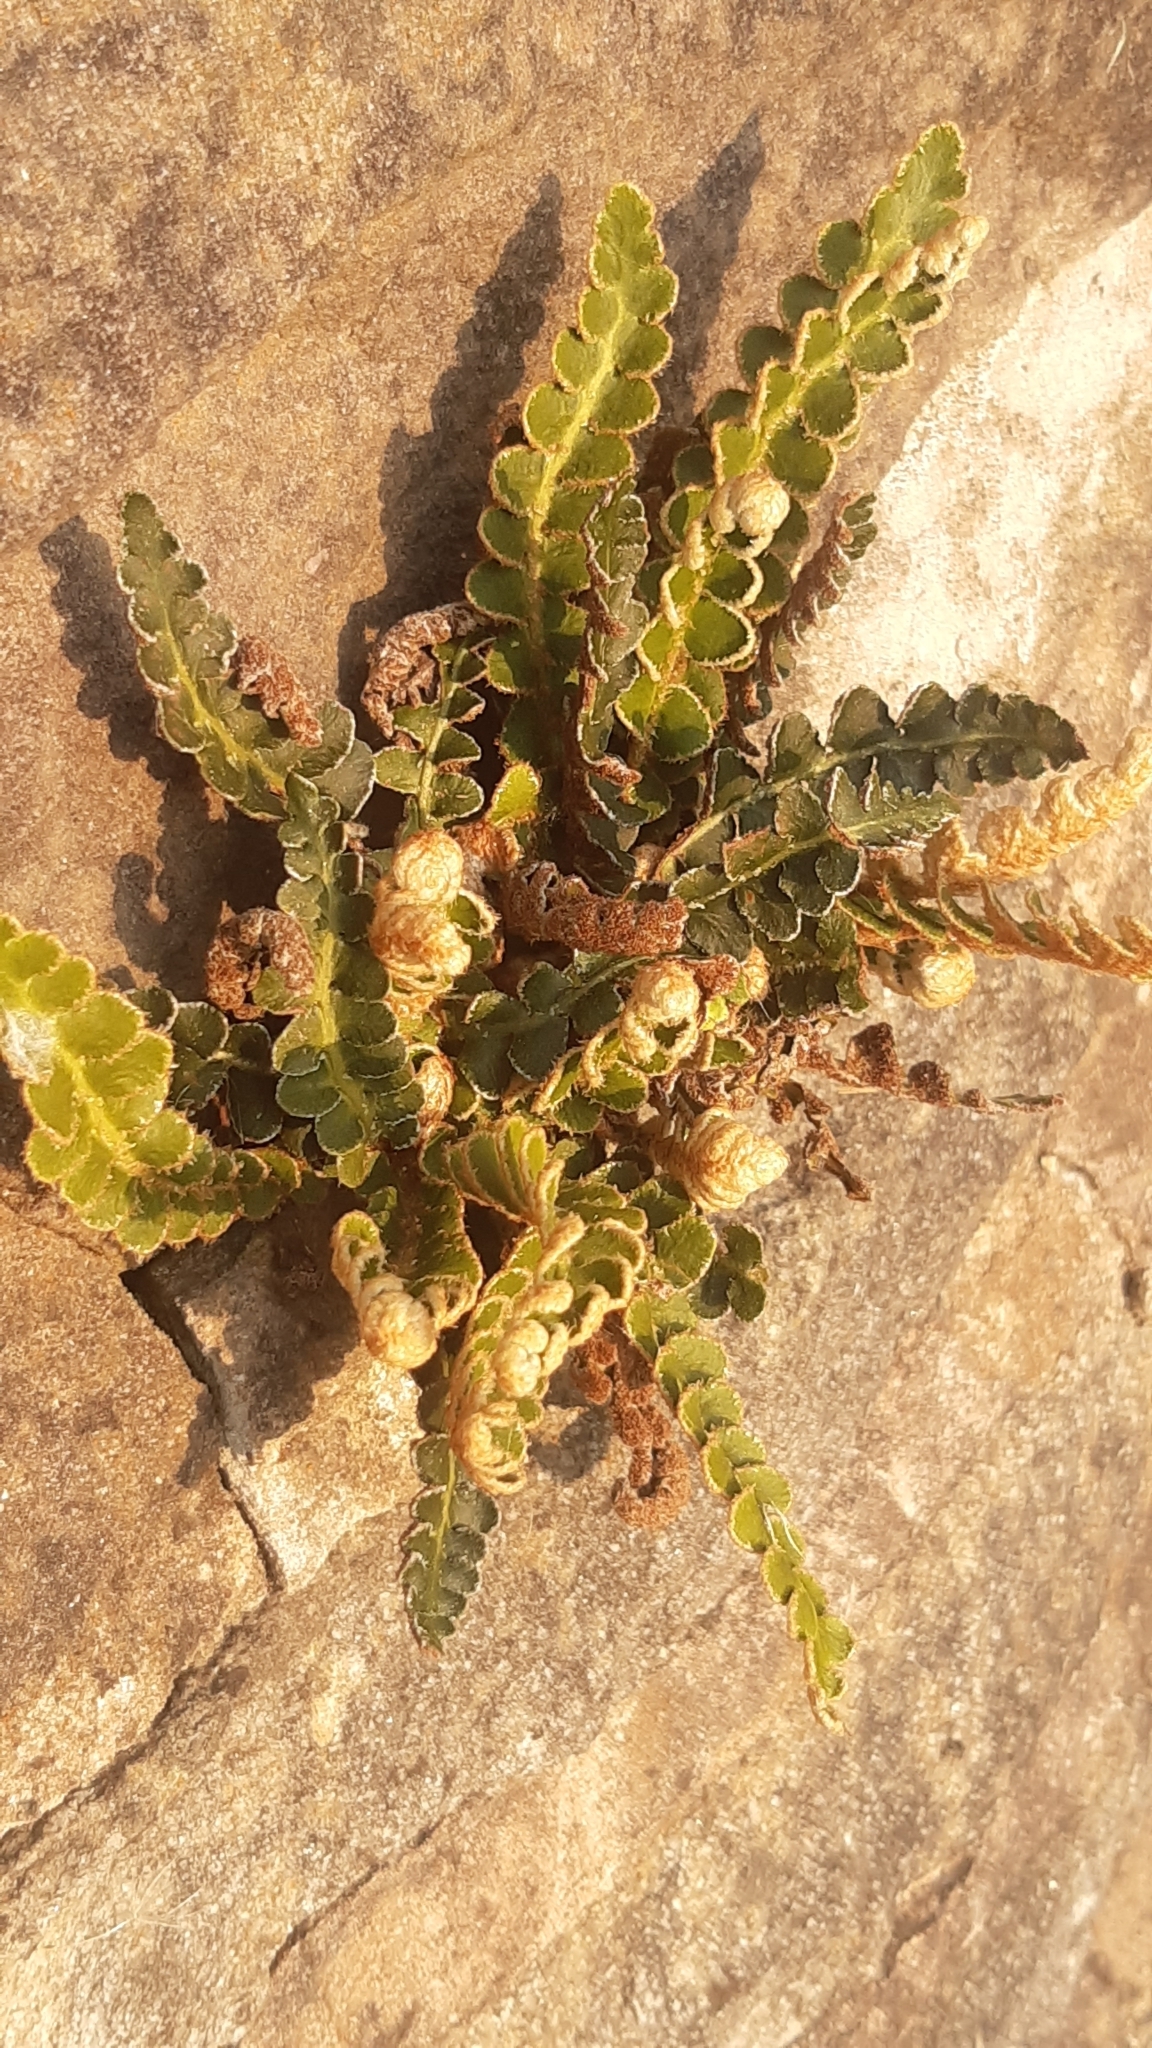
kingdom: Plantae
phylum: Tracheophyta
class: Polypodiopsida
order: Polypodiales
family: Aspleniaceae
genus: Asplenium
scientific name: Asplenium ceterach
